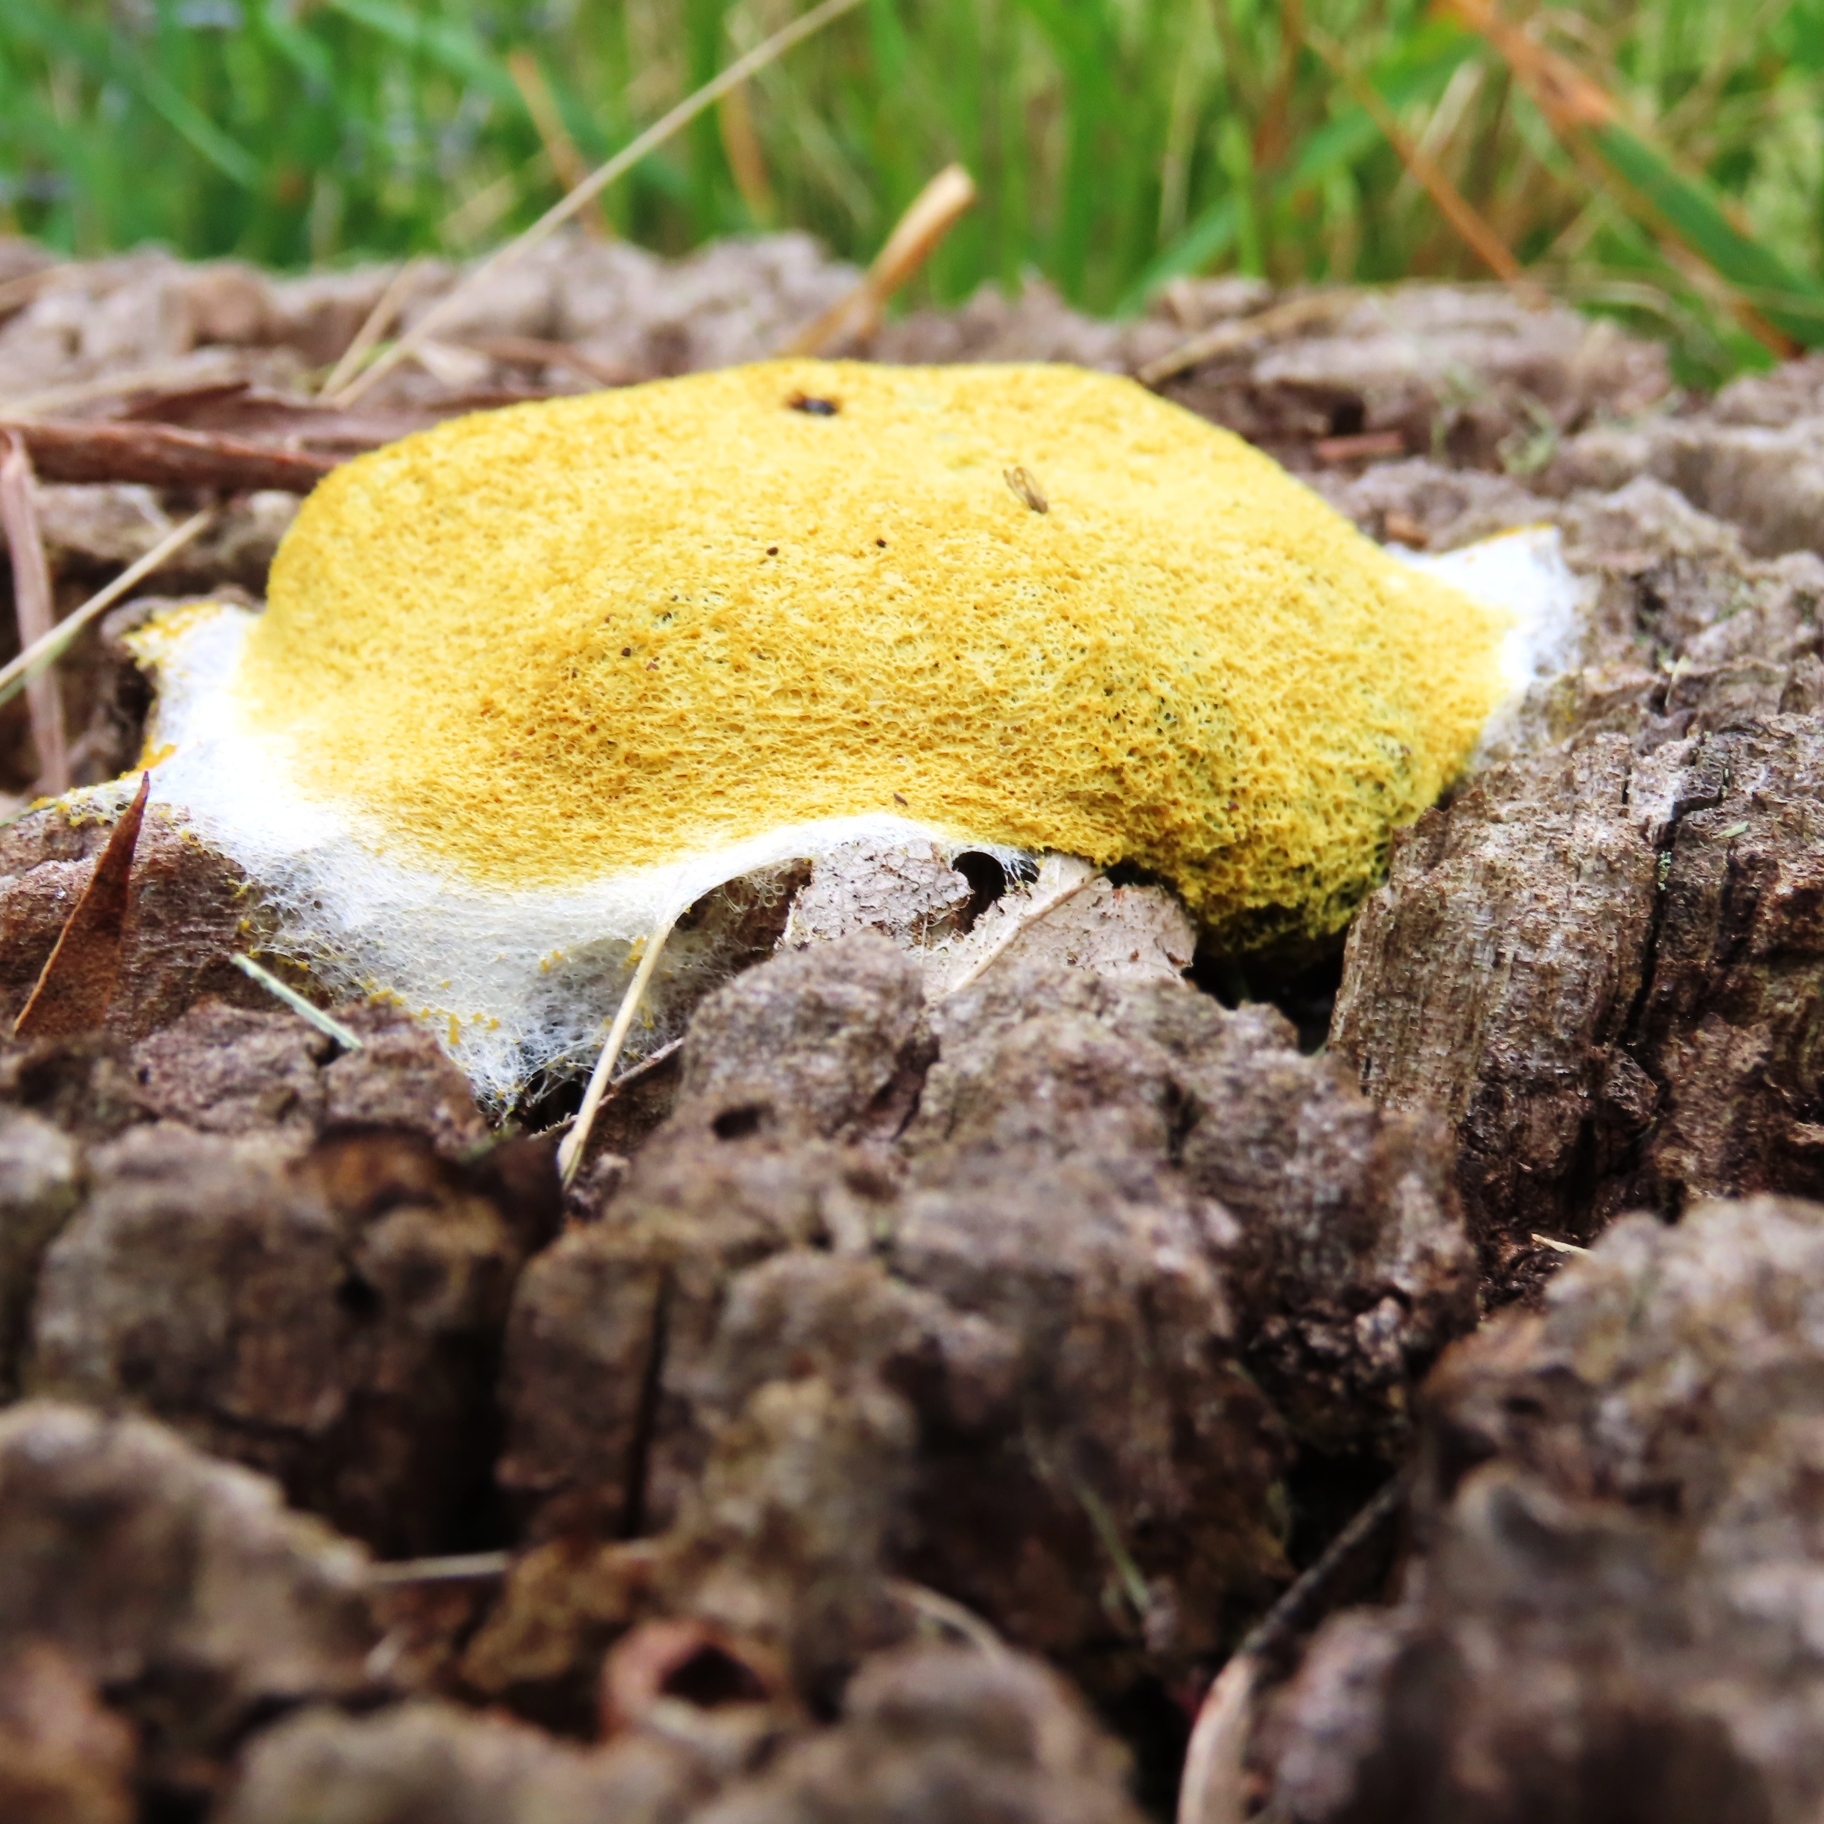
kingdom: Protozoa
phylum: Mycetozoa
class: Myxomycetes
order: Physarales
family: Physaraceae
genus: Fuligo
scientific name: Fuligo septica
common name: Dog vomit slime mold
